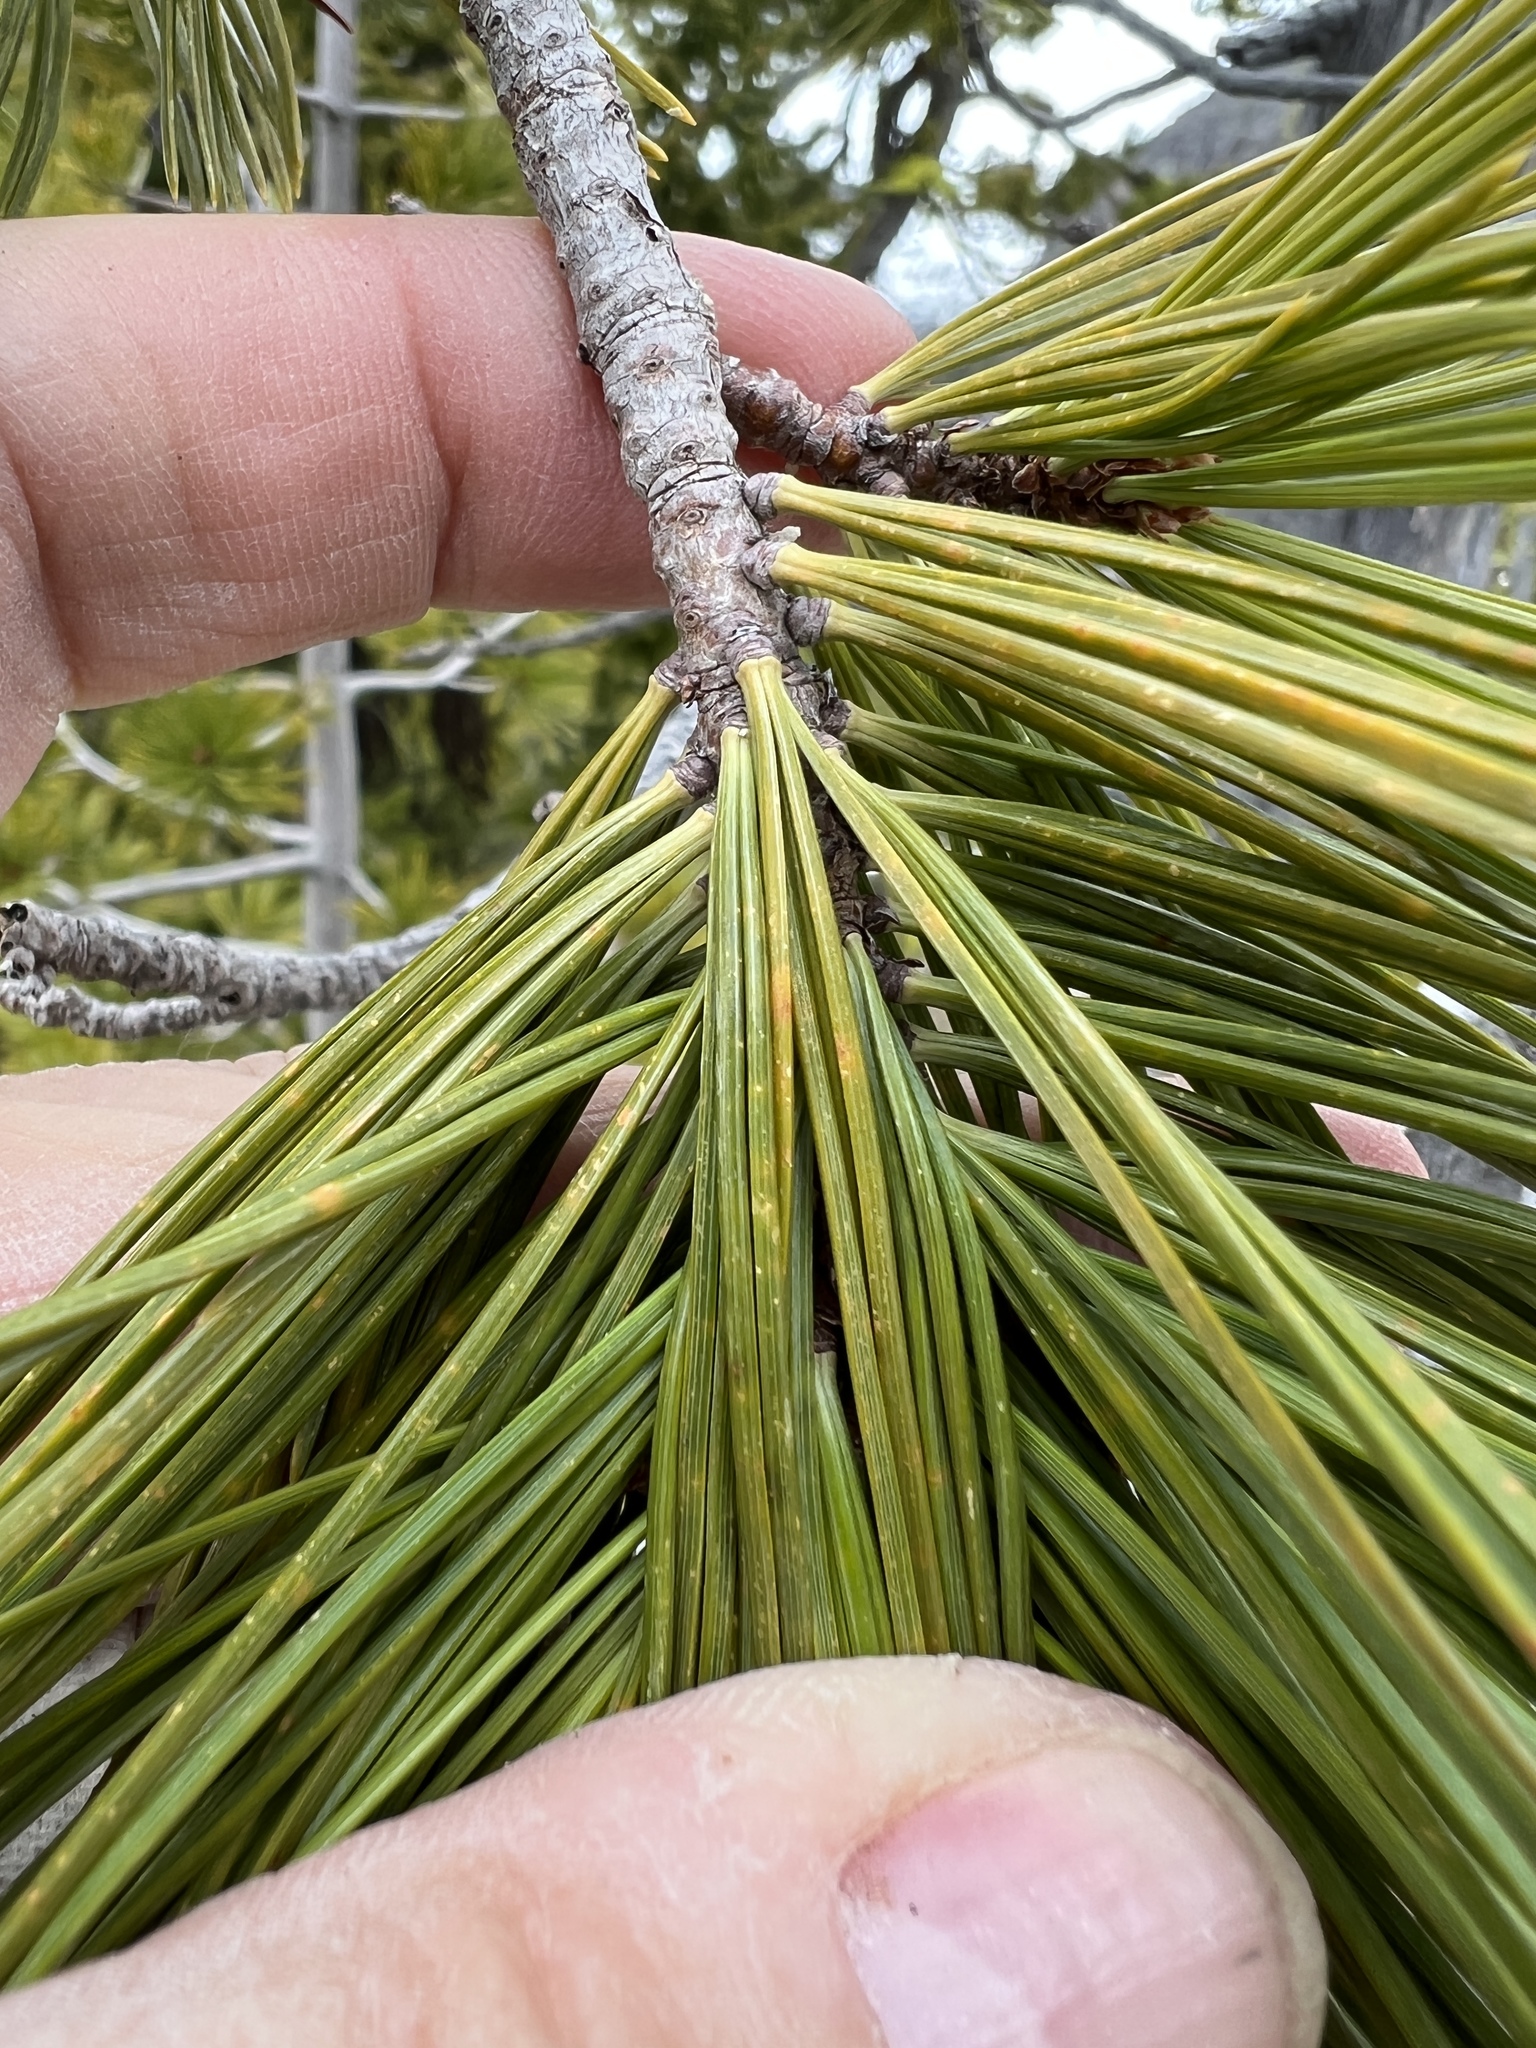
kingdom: Plantae
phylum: Tracheophyta
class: Pinopsida
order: Pinales
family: Pinaceae
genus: Pinus
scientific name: Pinus albicaulis
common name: Whitebark pine
